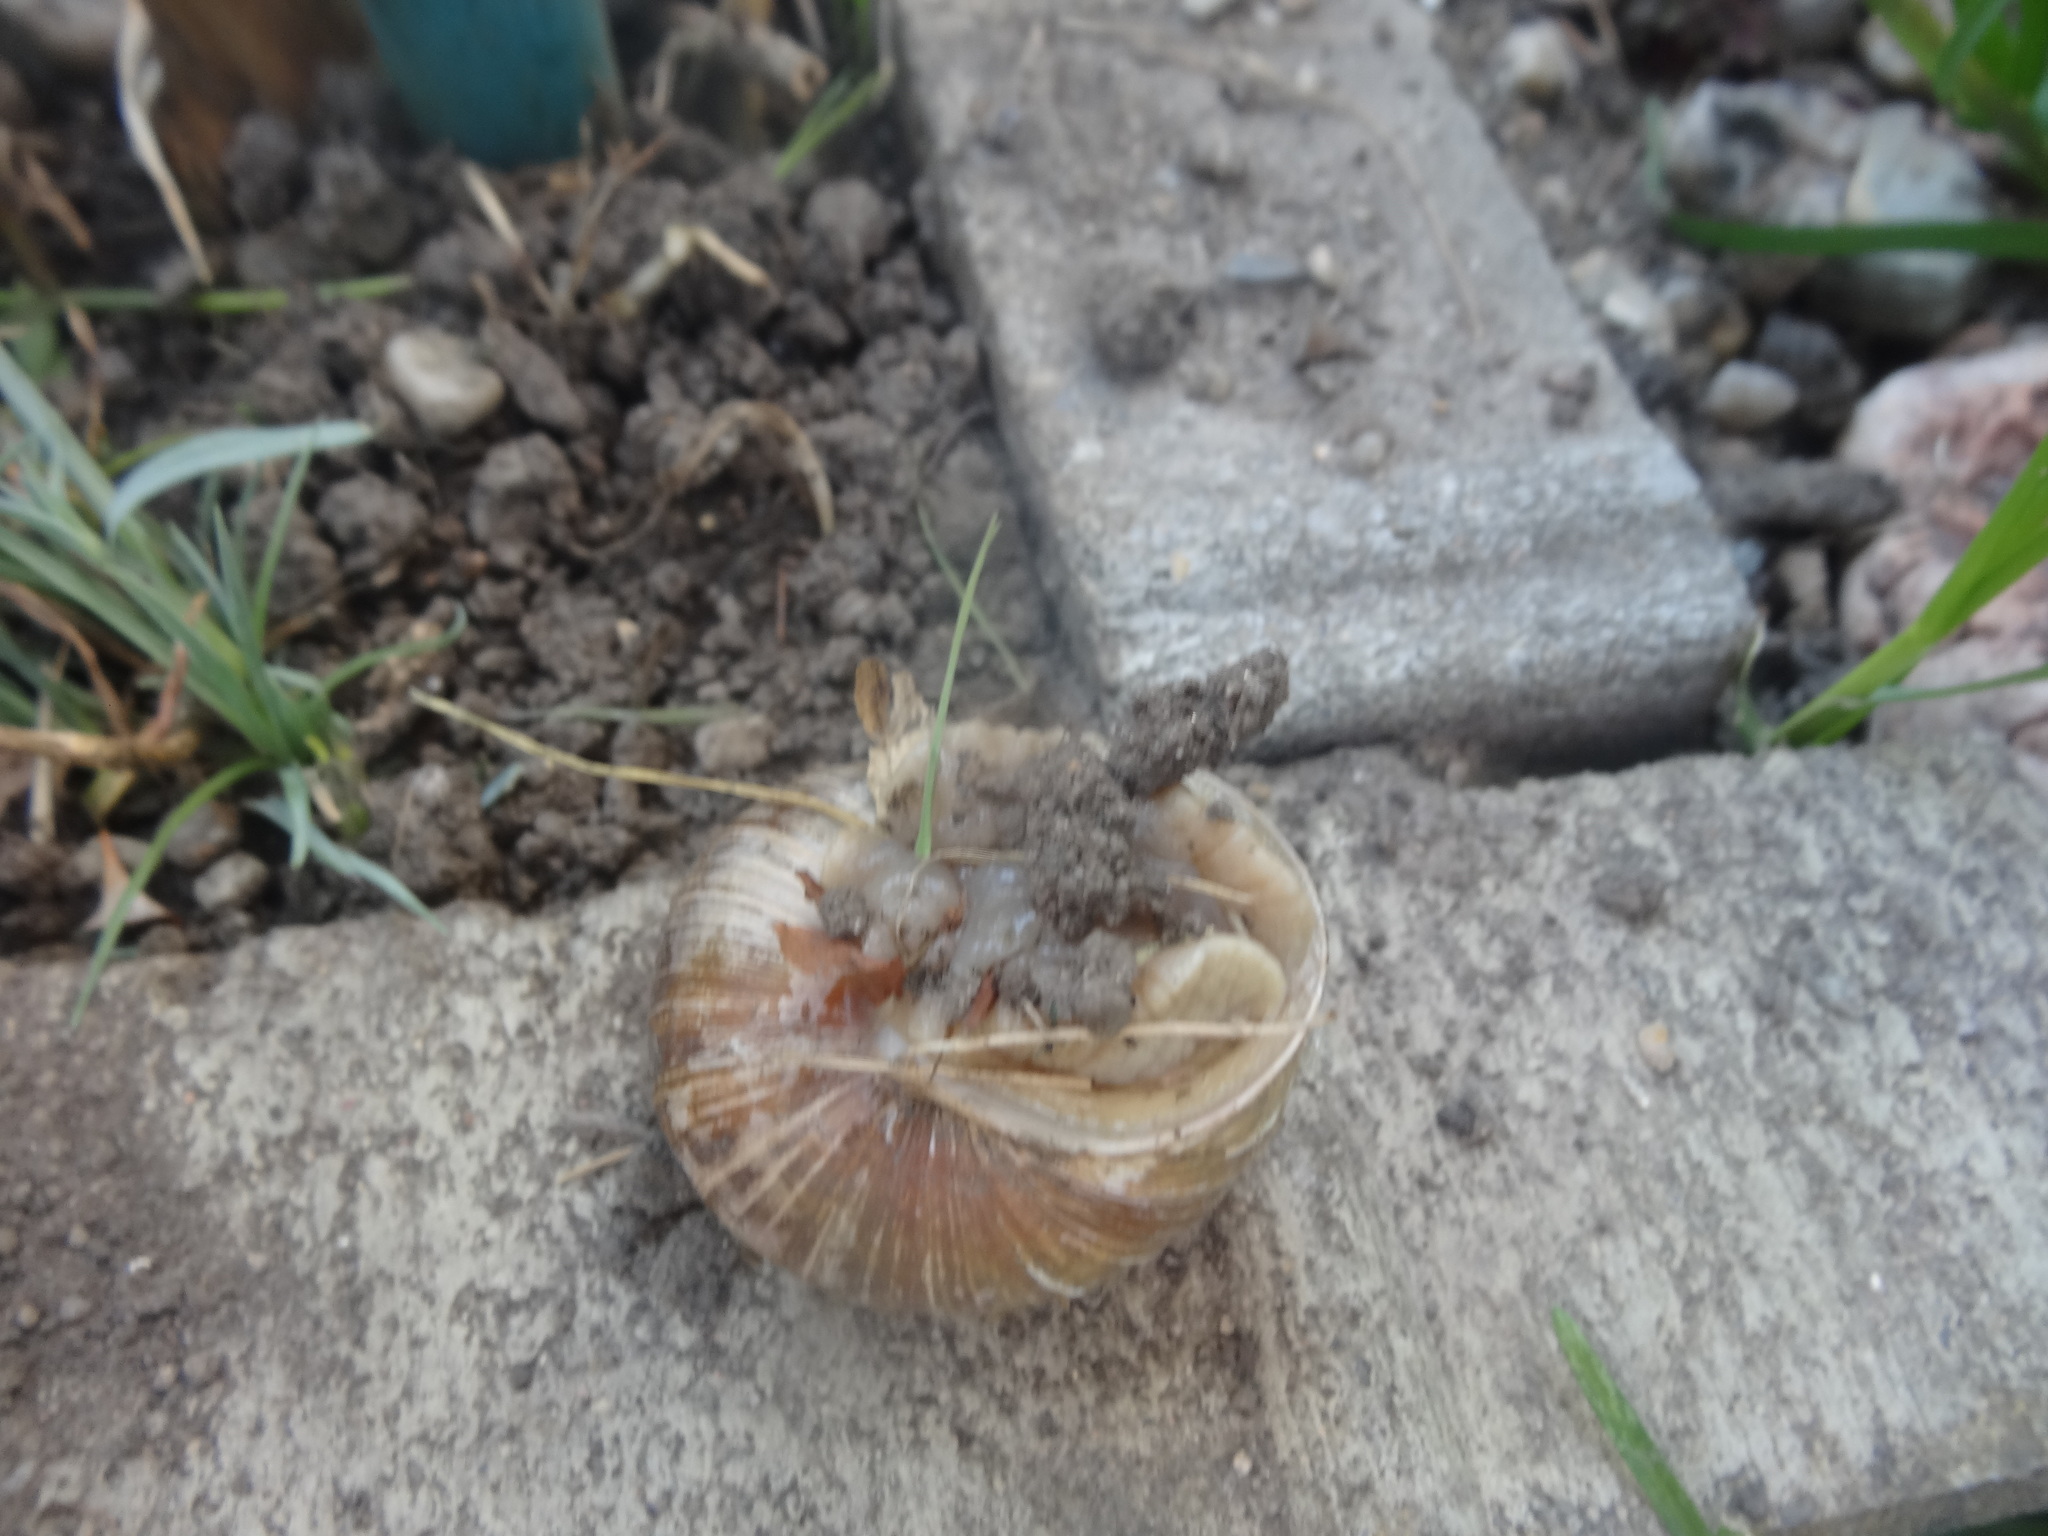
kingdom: Animalia
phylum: Mollusca
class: Gastropoda
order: Stylommatophora
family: Helicidae
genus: Helix
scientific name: Helix pomatia
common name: Roman snail
